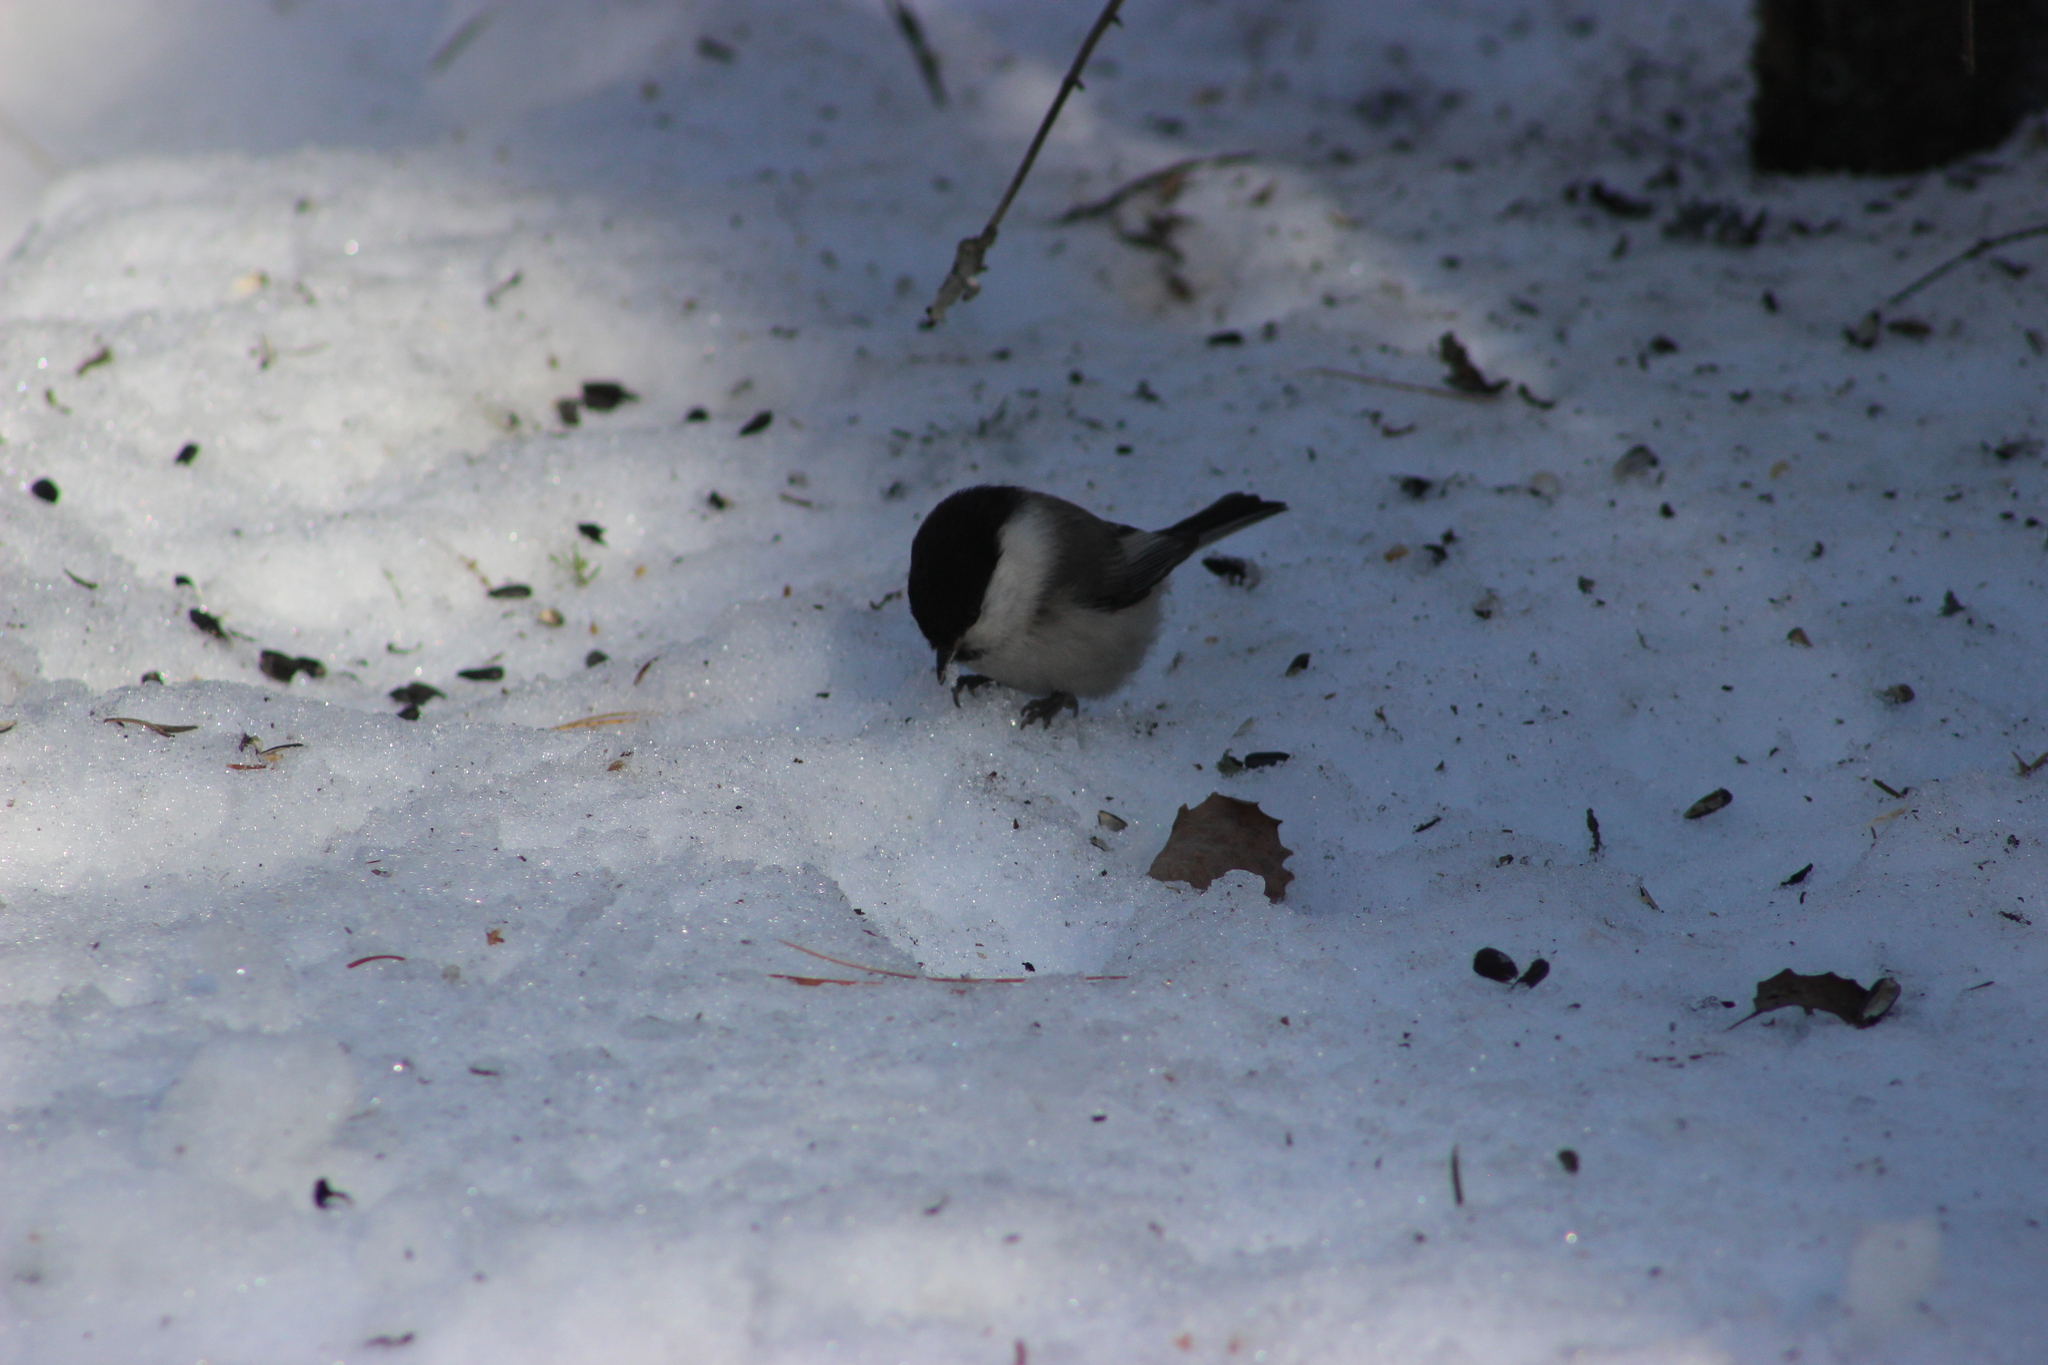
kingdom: Animalia
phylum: Chordata
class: Aves
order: Passeriformes
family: Paridae
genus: Poecile
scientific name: Poecile montanus
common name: Willow tit
